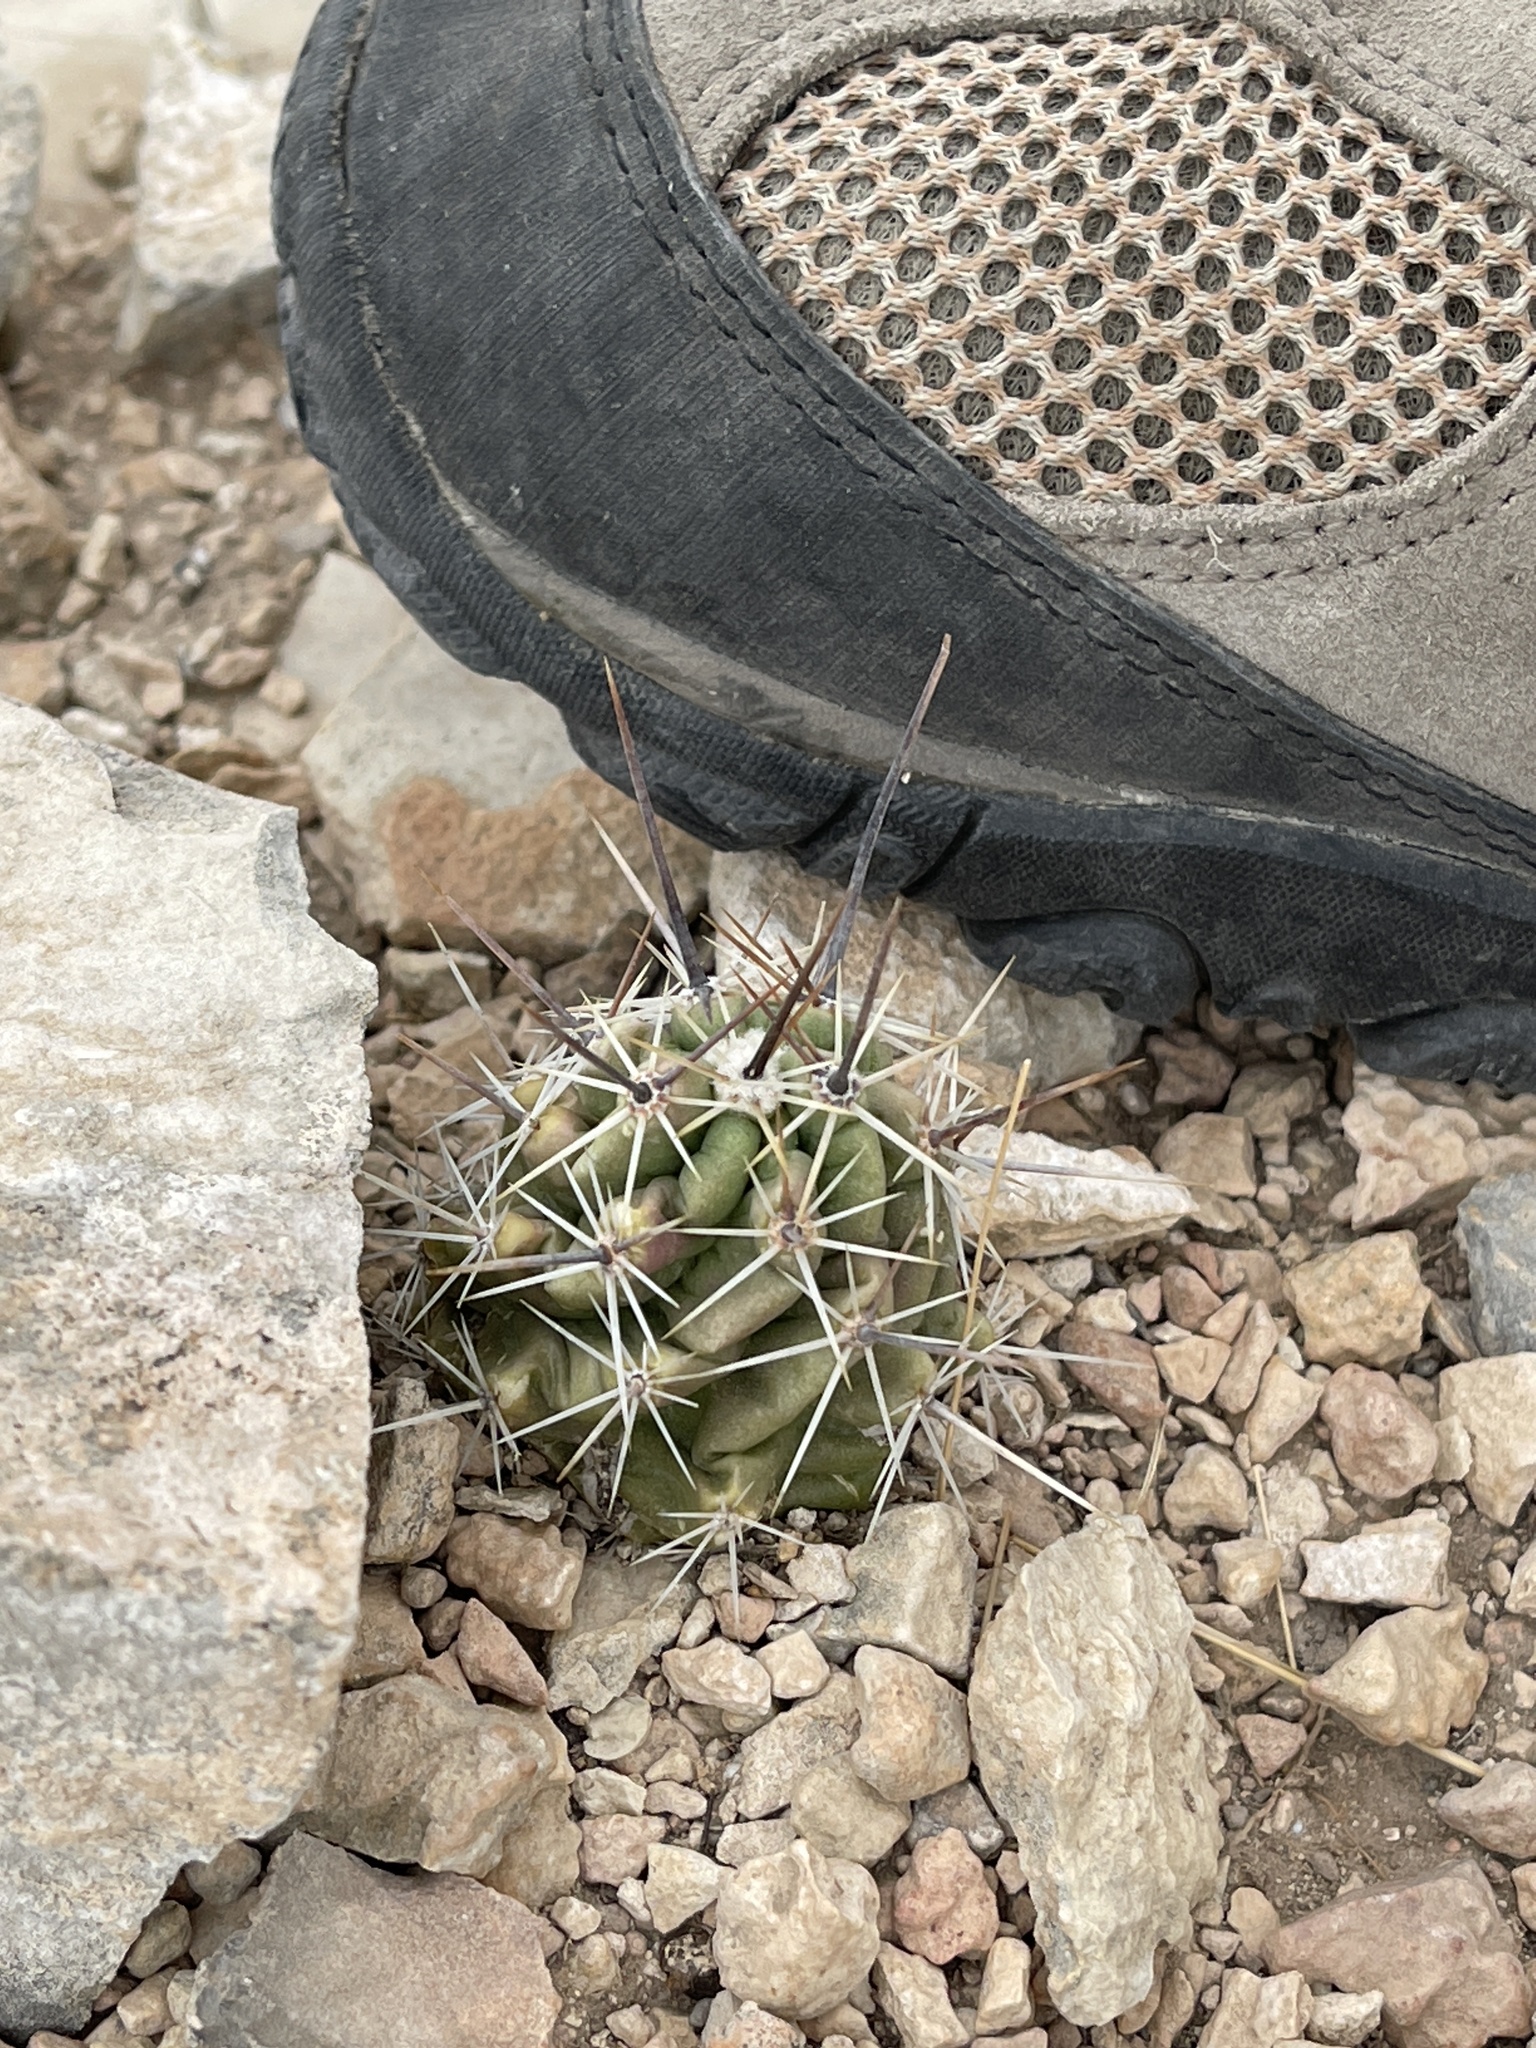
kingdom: Plantae
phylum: Tracheophyta
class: Magnoliopsida
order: Caryophyllales
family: Cactaceae
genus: Echinocereus
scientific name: Echinocereus enneacanthus
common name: Pitaya
